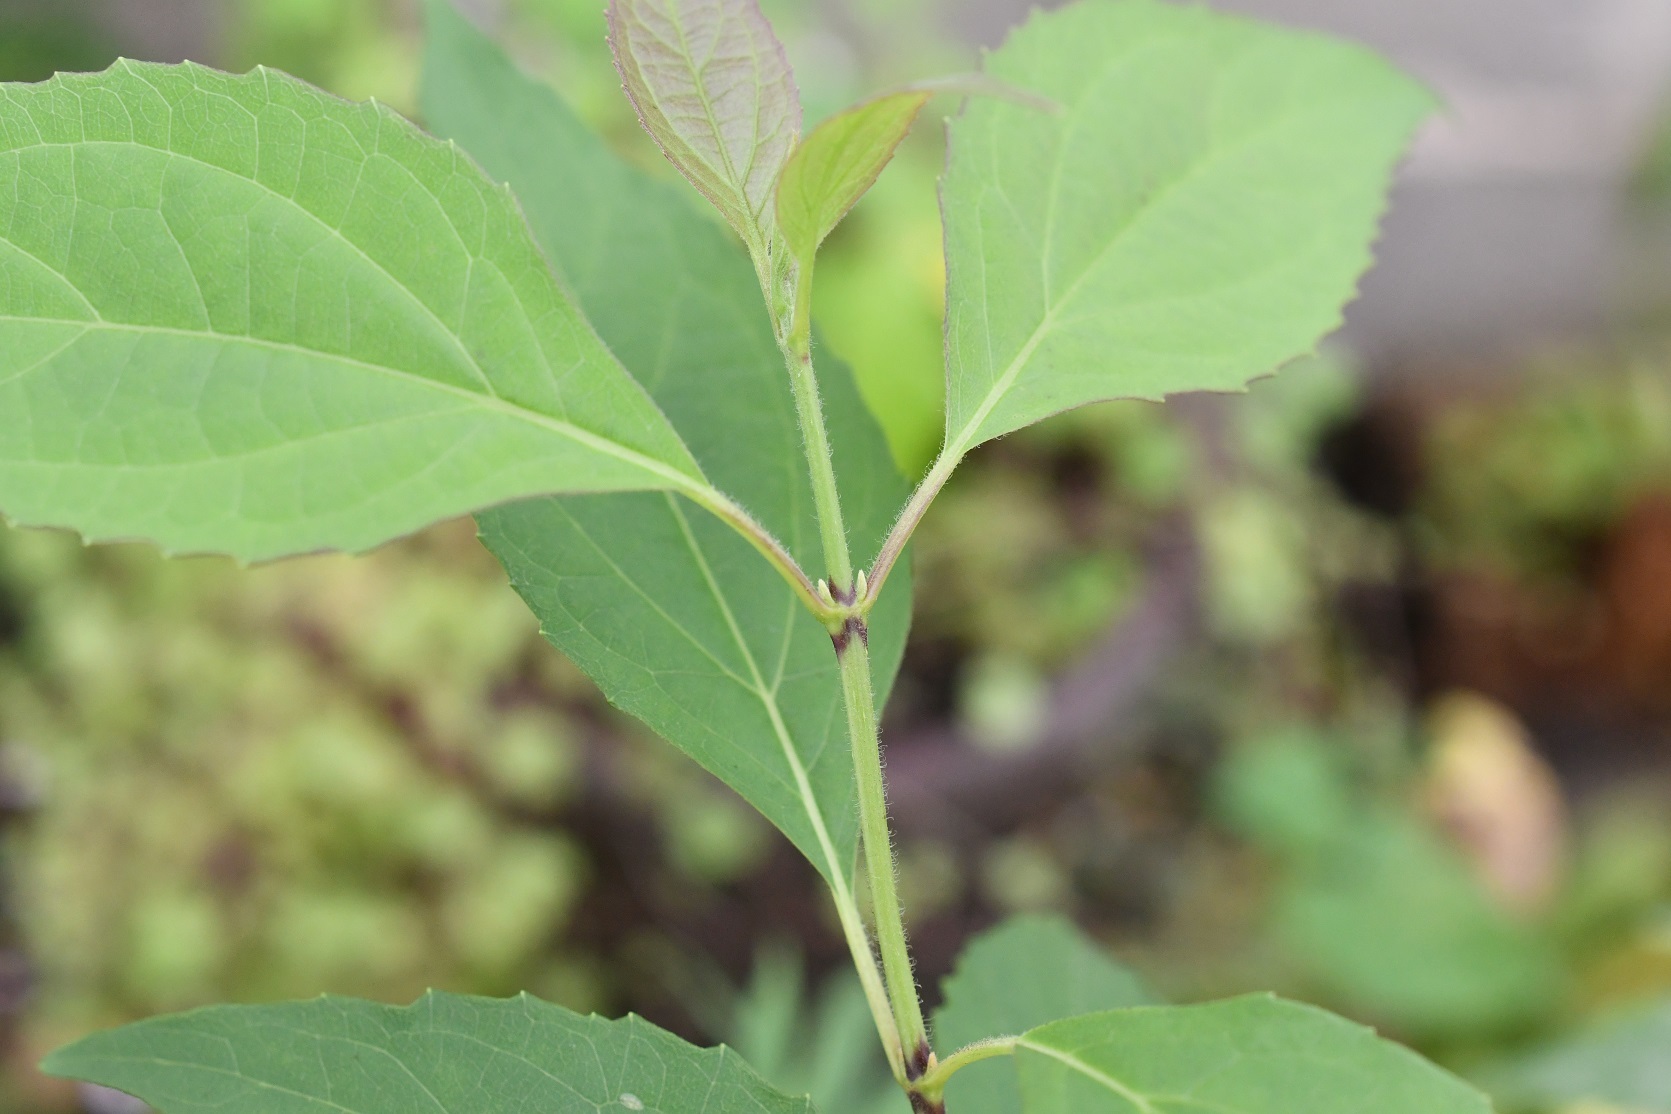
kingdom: Plantae
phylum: Tracheophyta
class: Magnoliopsida
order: Asterales
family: Asteraceae
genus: Fleischmanniopsis
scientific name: Fleischmanniopsis leucocephala
